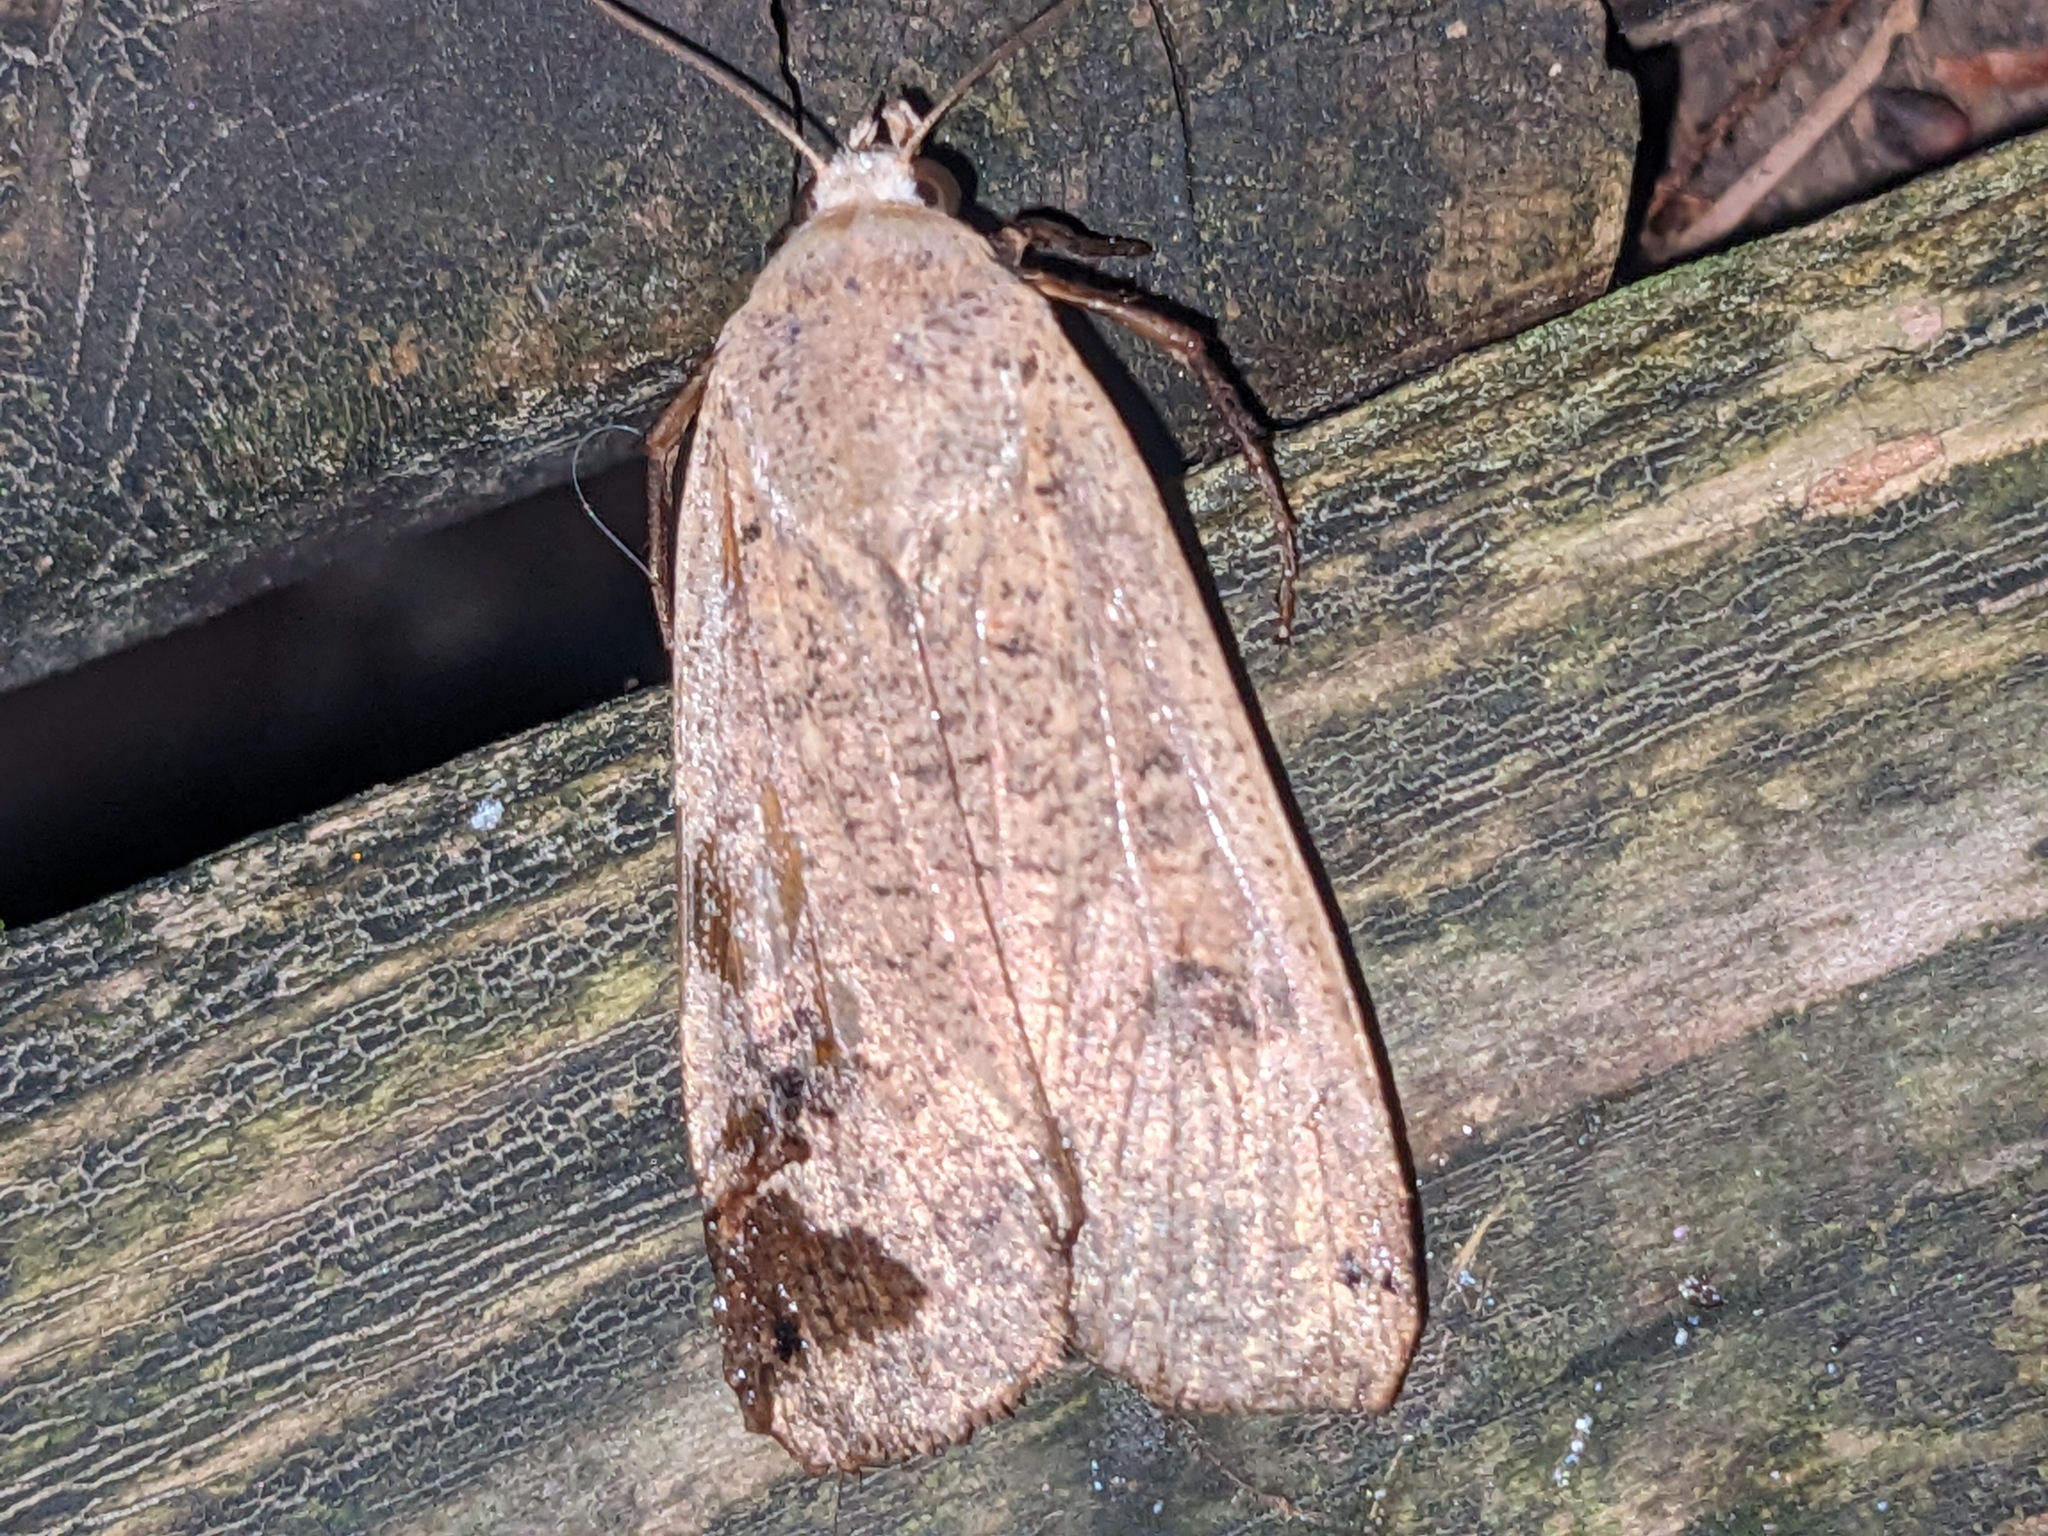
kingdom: Animalia
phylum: Arthropoda
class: Insecta
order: Lepidoptera
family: Noctuidae
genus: Noctua
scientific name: Noctua pronuba
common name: Large yellow underwing
